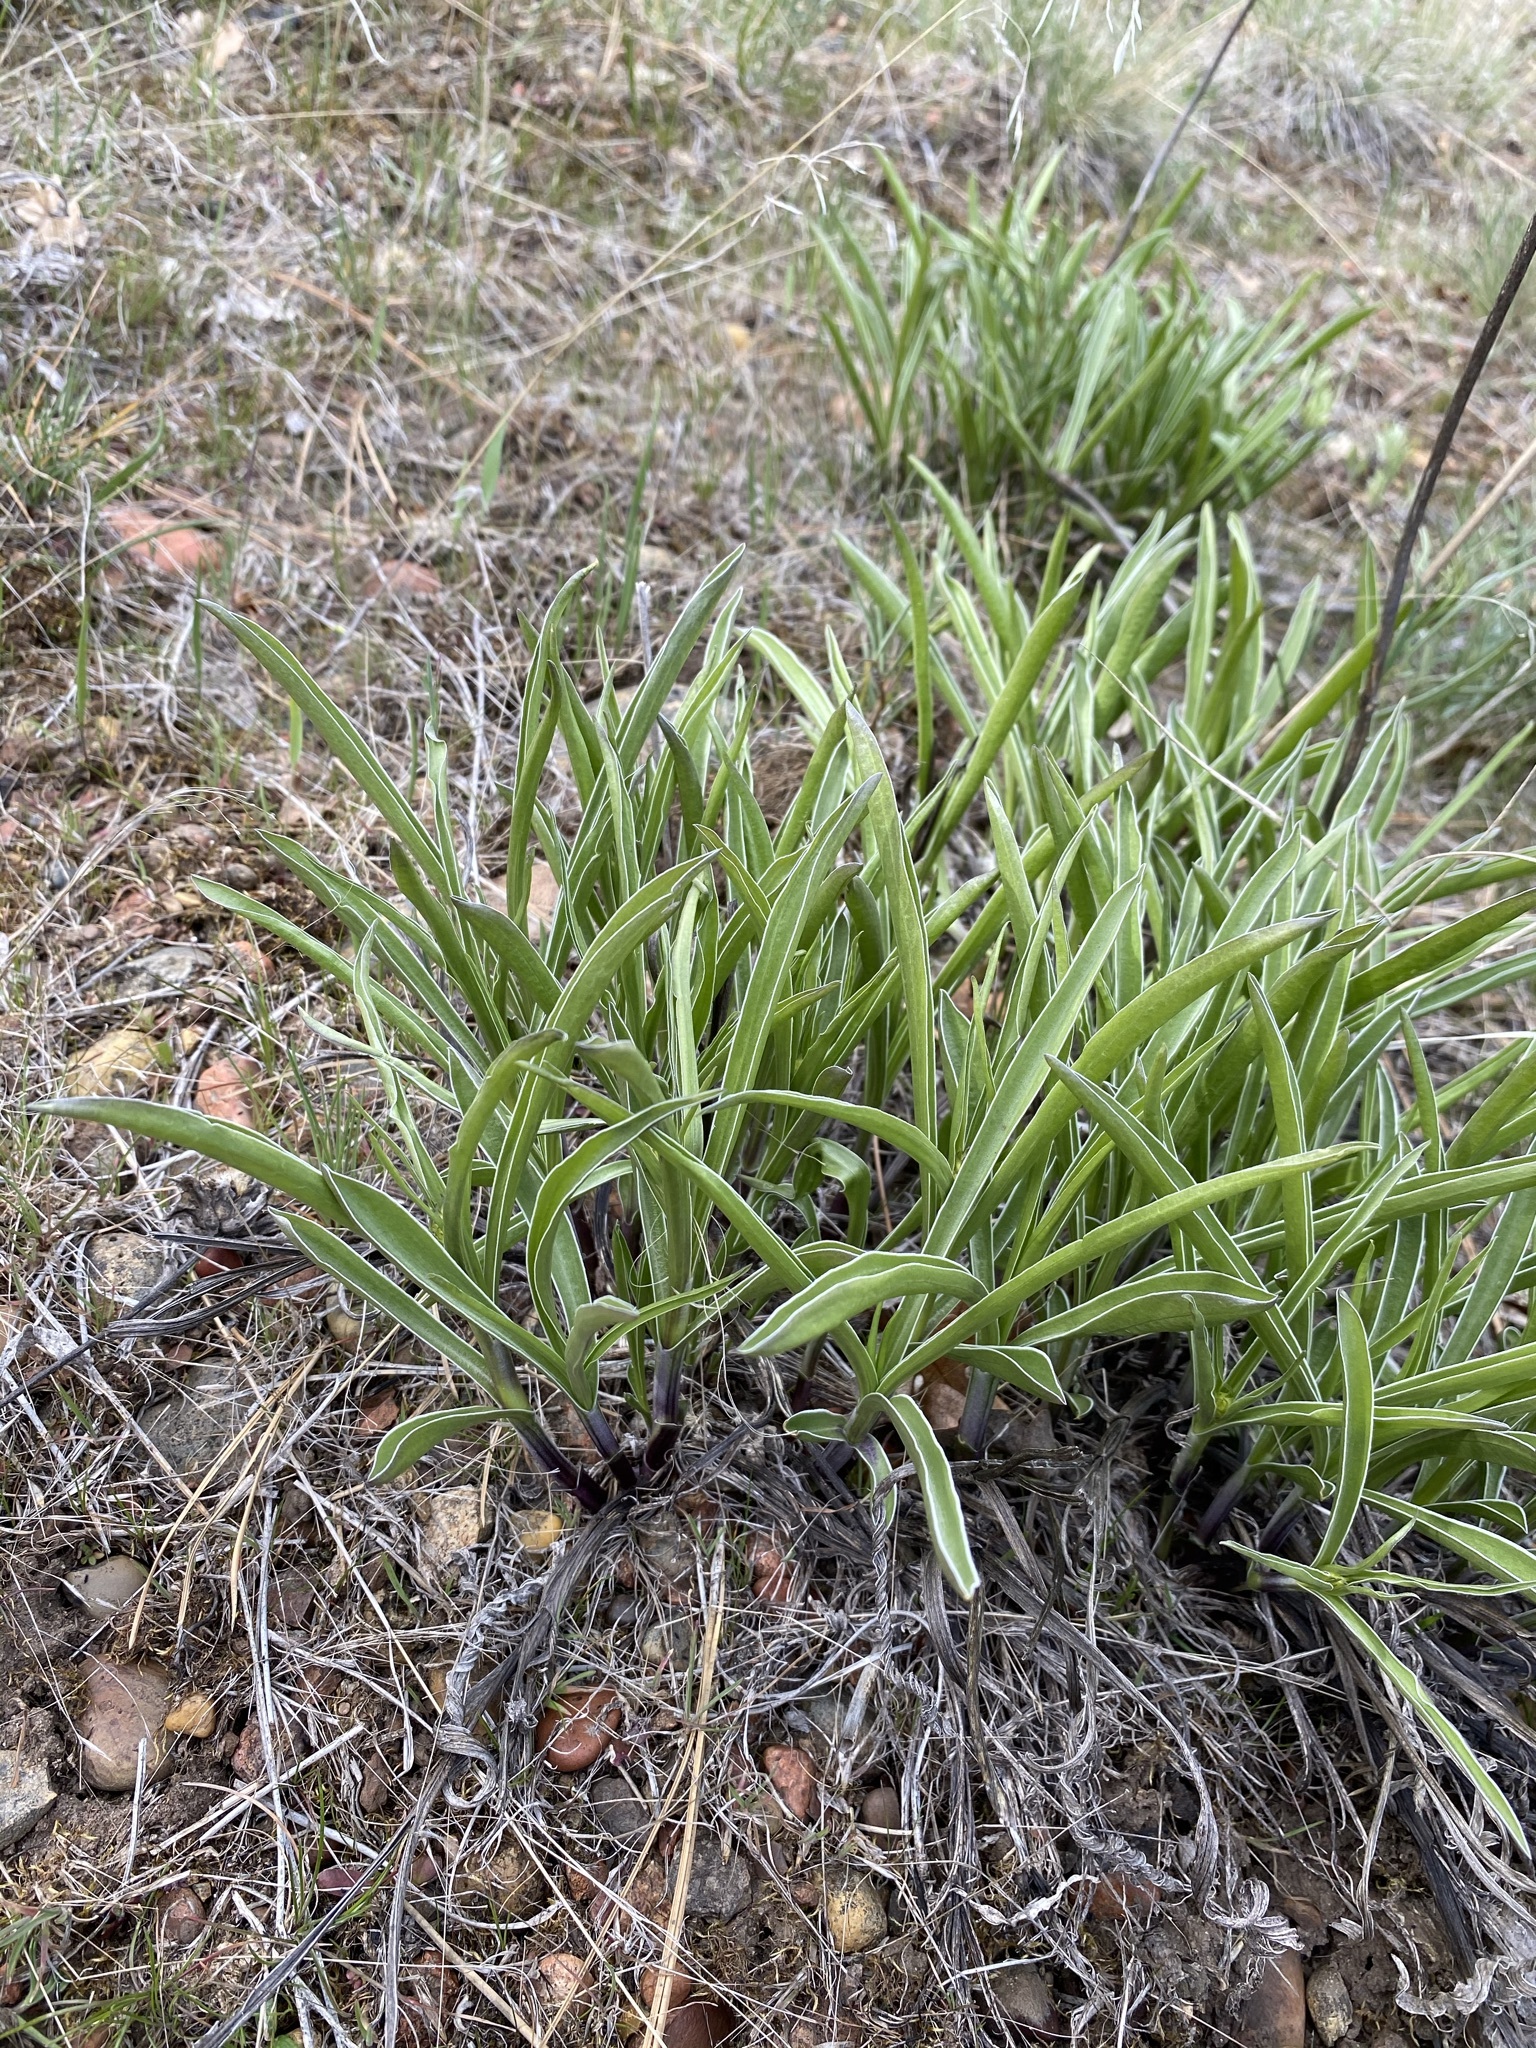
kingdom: Plantae
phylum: Tracheophyta
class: Magnoliopsida
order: Gentianales
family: Gentianaceae
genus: Frasera
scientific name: Frasera albicaulis
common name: Cusick's frasera
